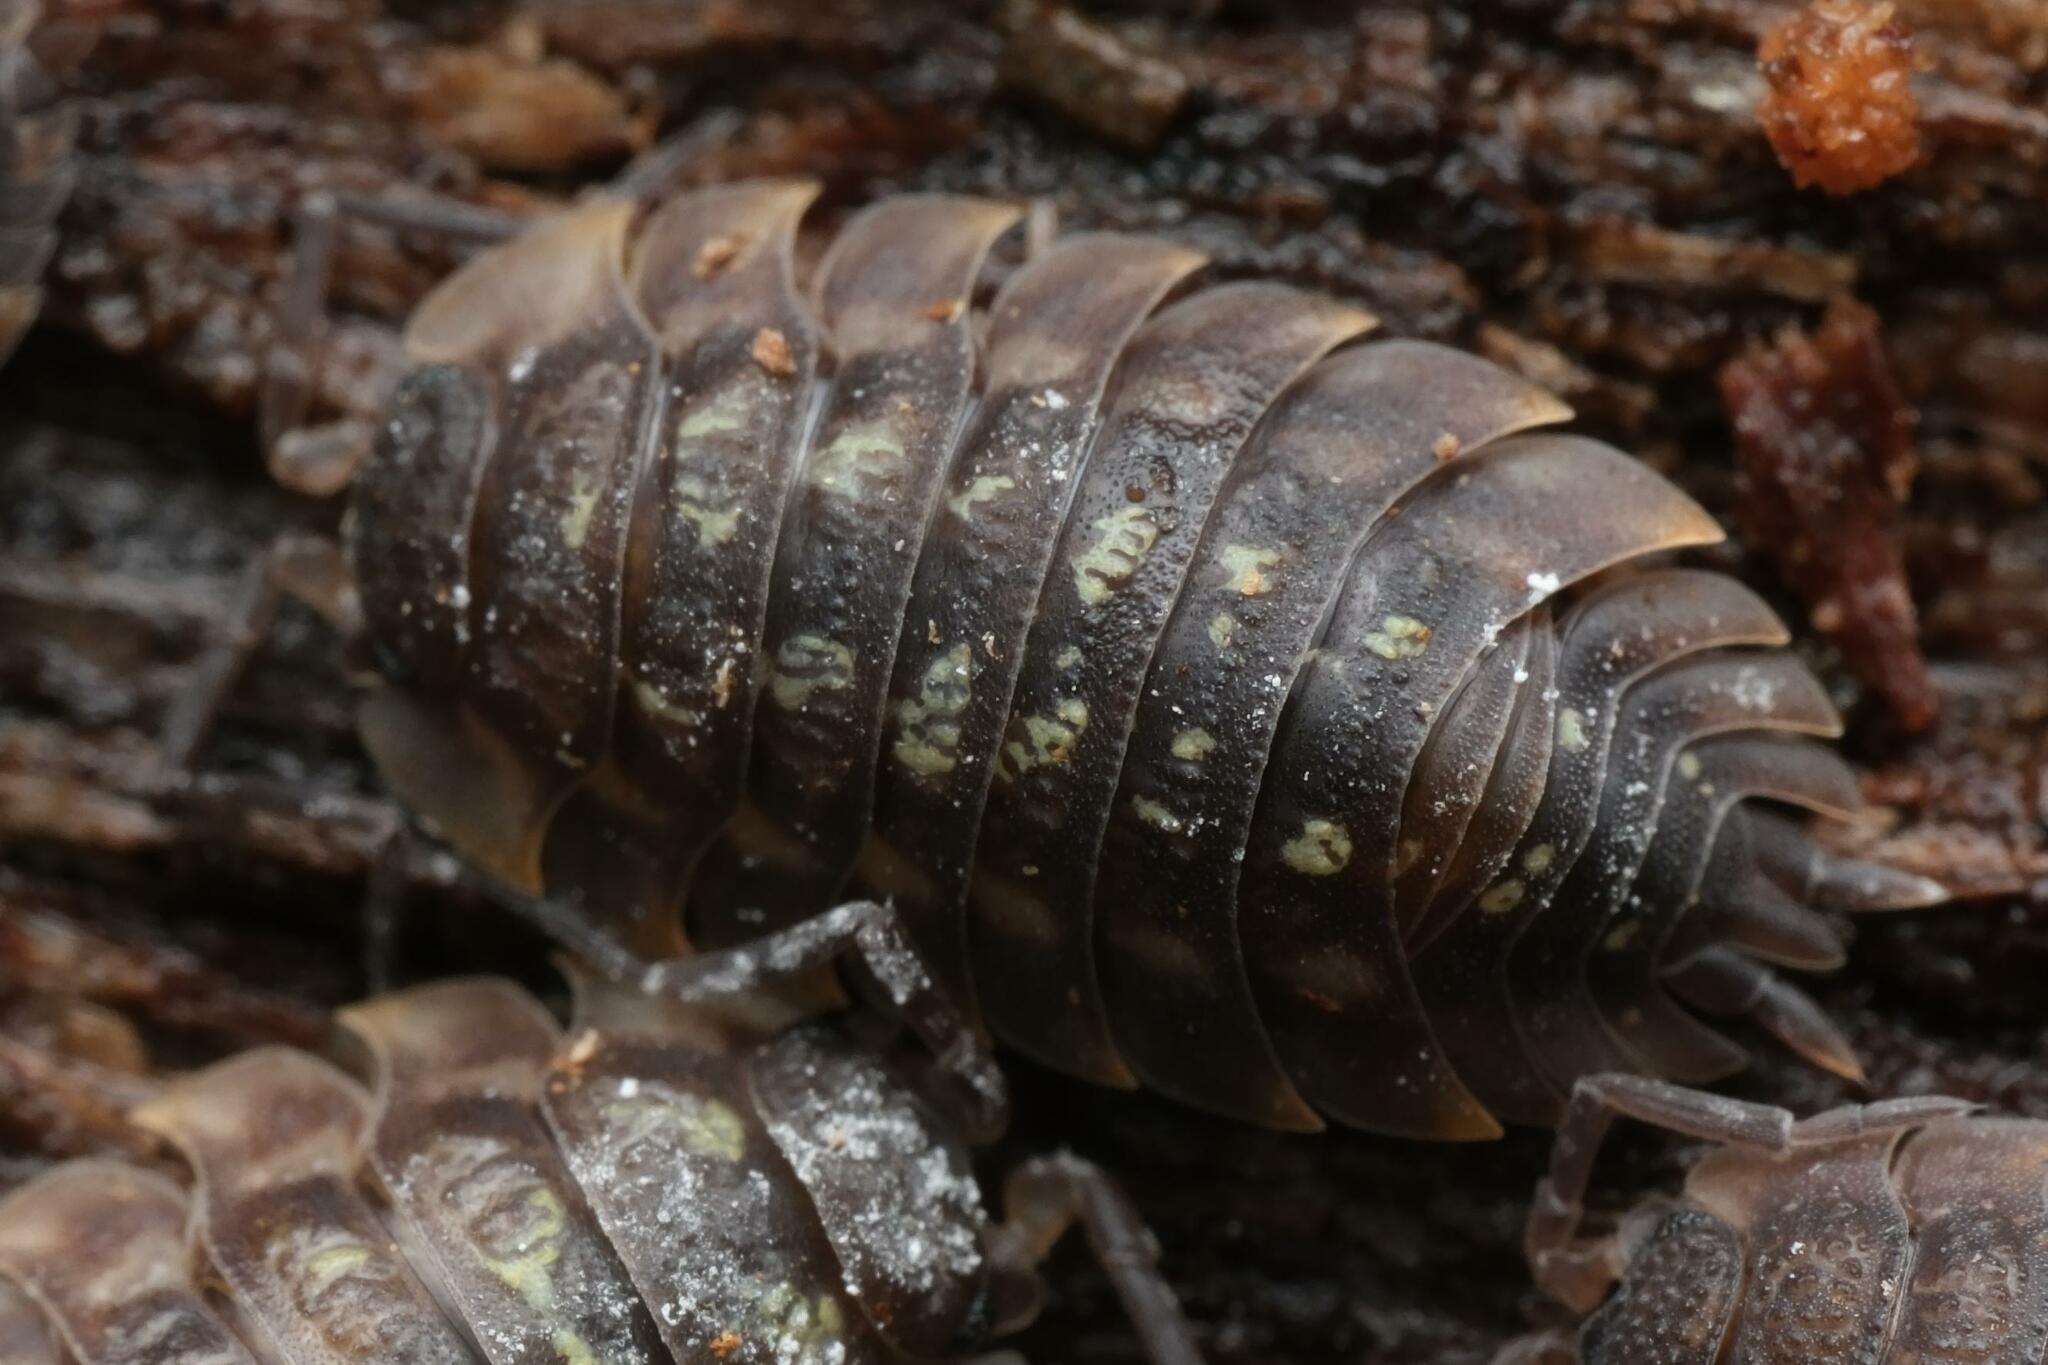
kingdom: Animalia
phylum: Arthropoda
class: Malacostraca
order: Isopoda
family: Oniscidae
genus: Oniscus
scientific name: Oniscus asellus
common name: Common shiny woodlouse
